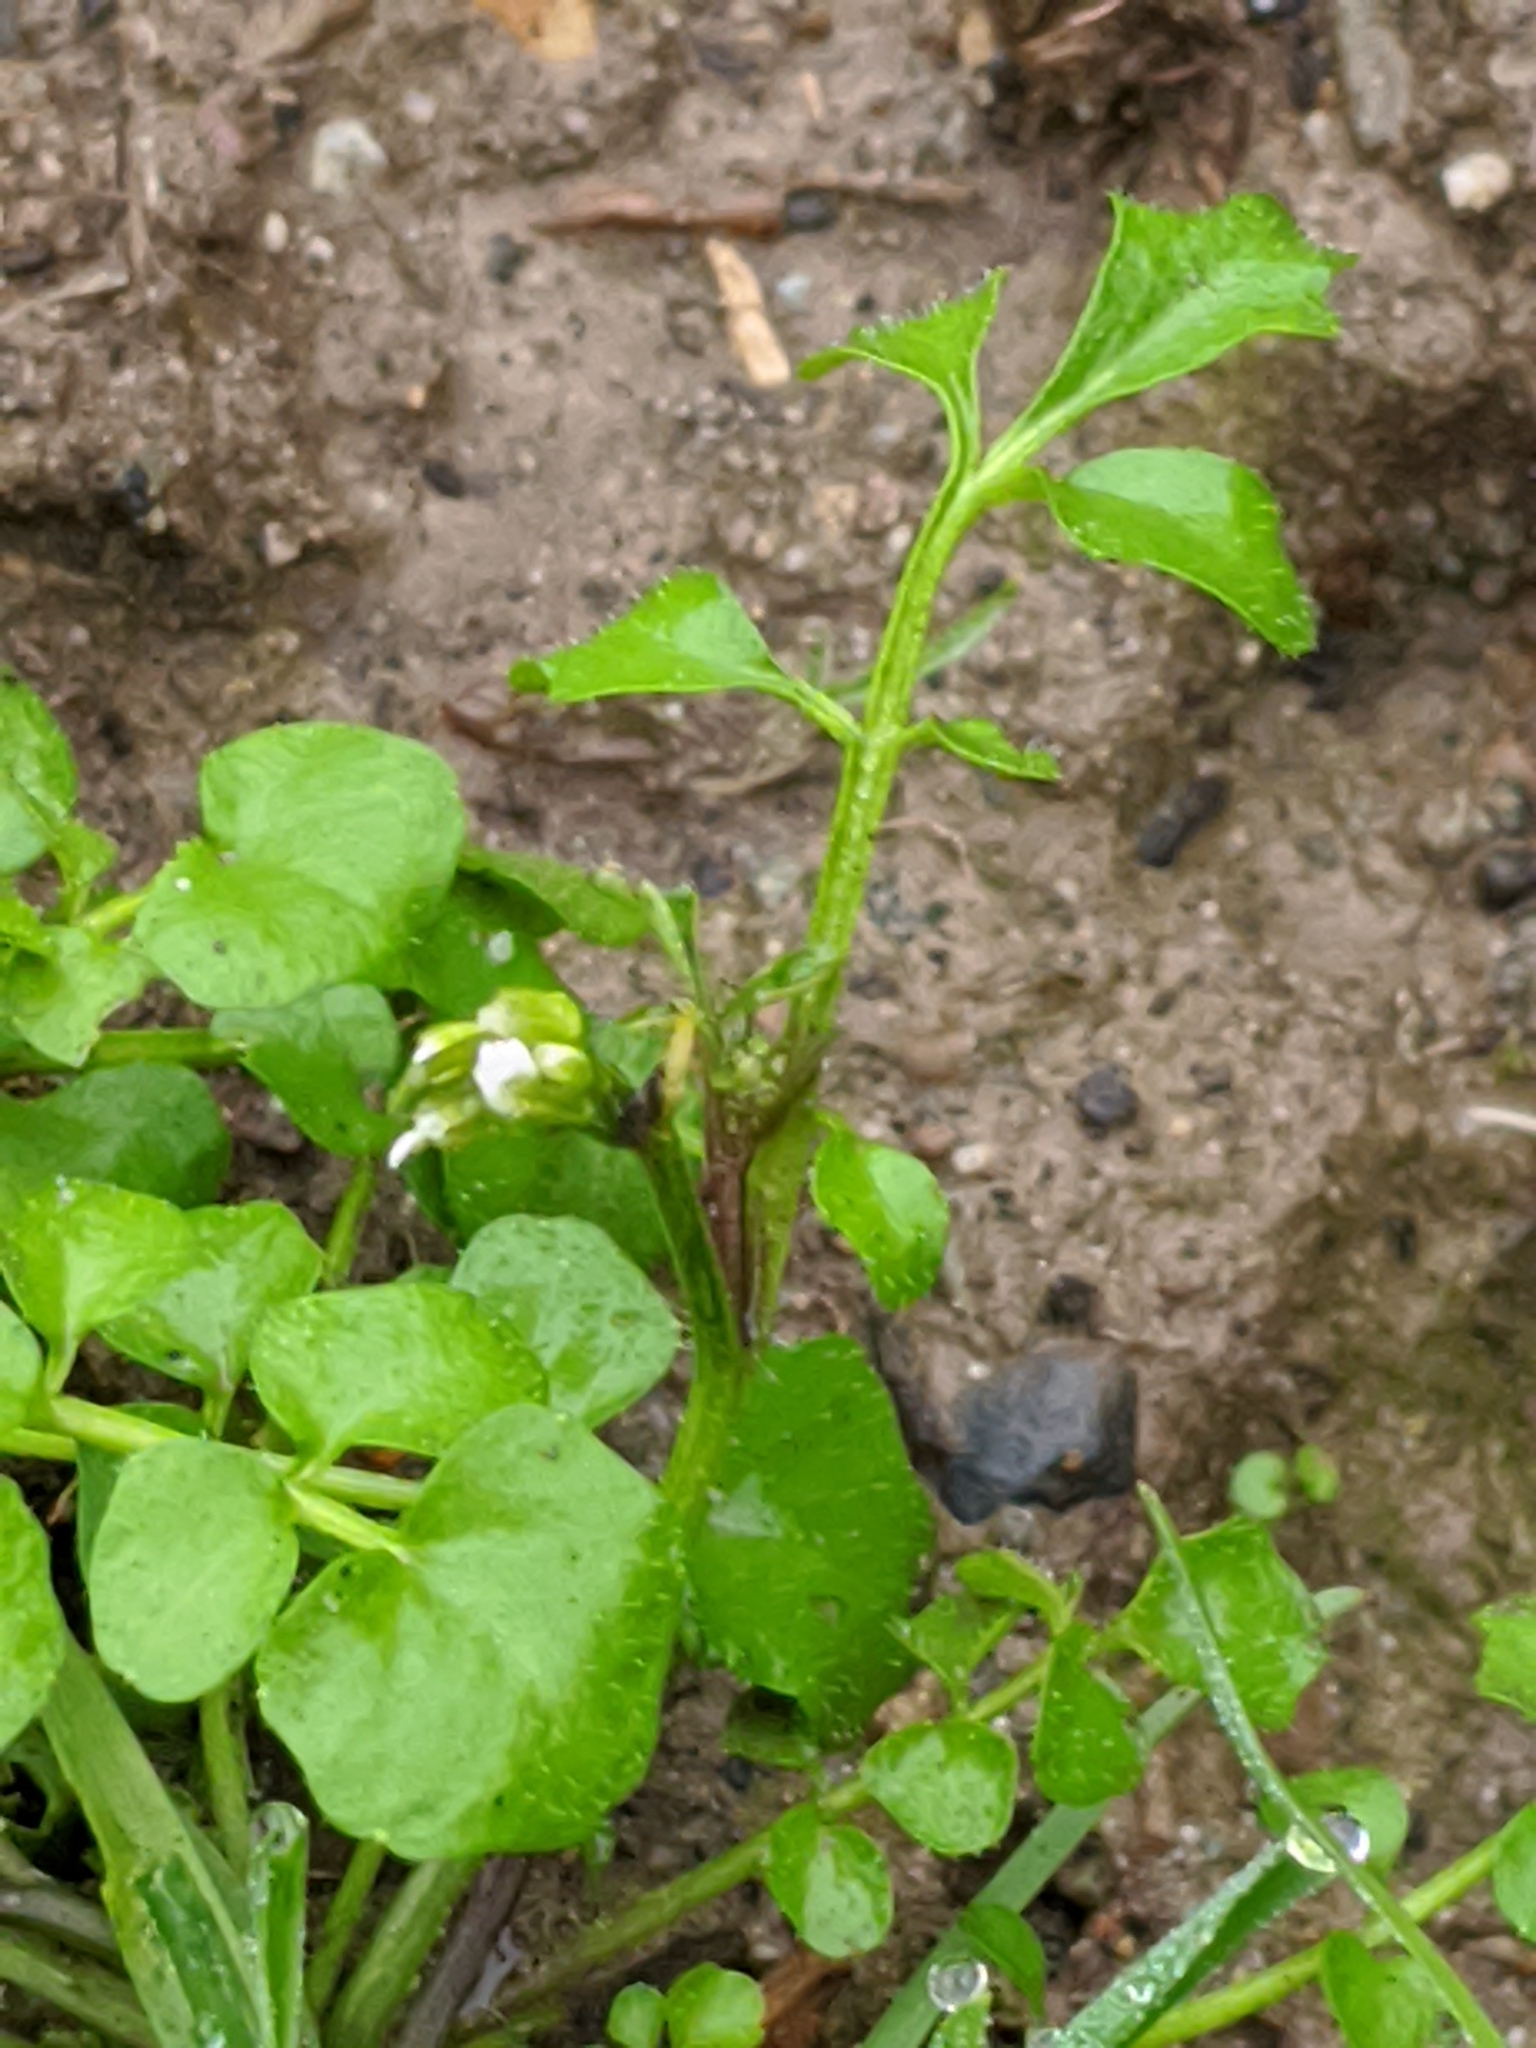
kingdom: Plantae
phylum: Tracheophyta
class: Magnoliopsida
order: Brassicales
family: Brassicaceae
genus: Cardamine
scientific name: Cardamine hirsuta
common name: Hairy bittercress
